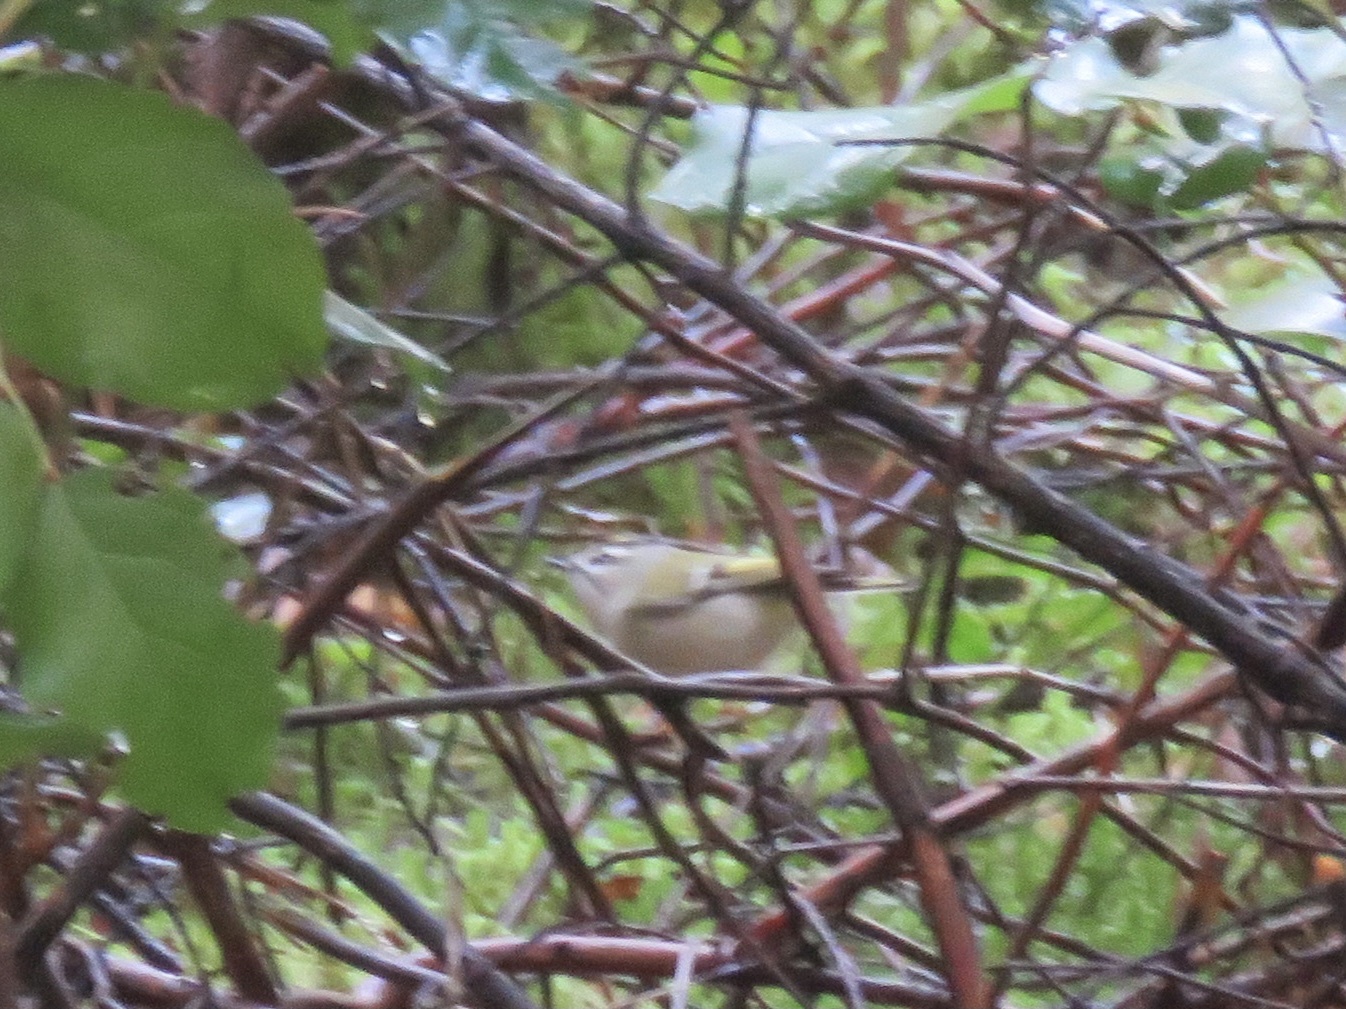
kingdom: Animalia
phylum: Chordata
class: Aves
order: Passeriformes
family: Regulidae
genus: Regulus
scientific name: Regulus satrapa
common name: Golden-crowned kinglet
